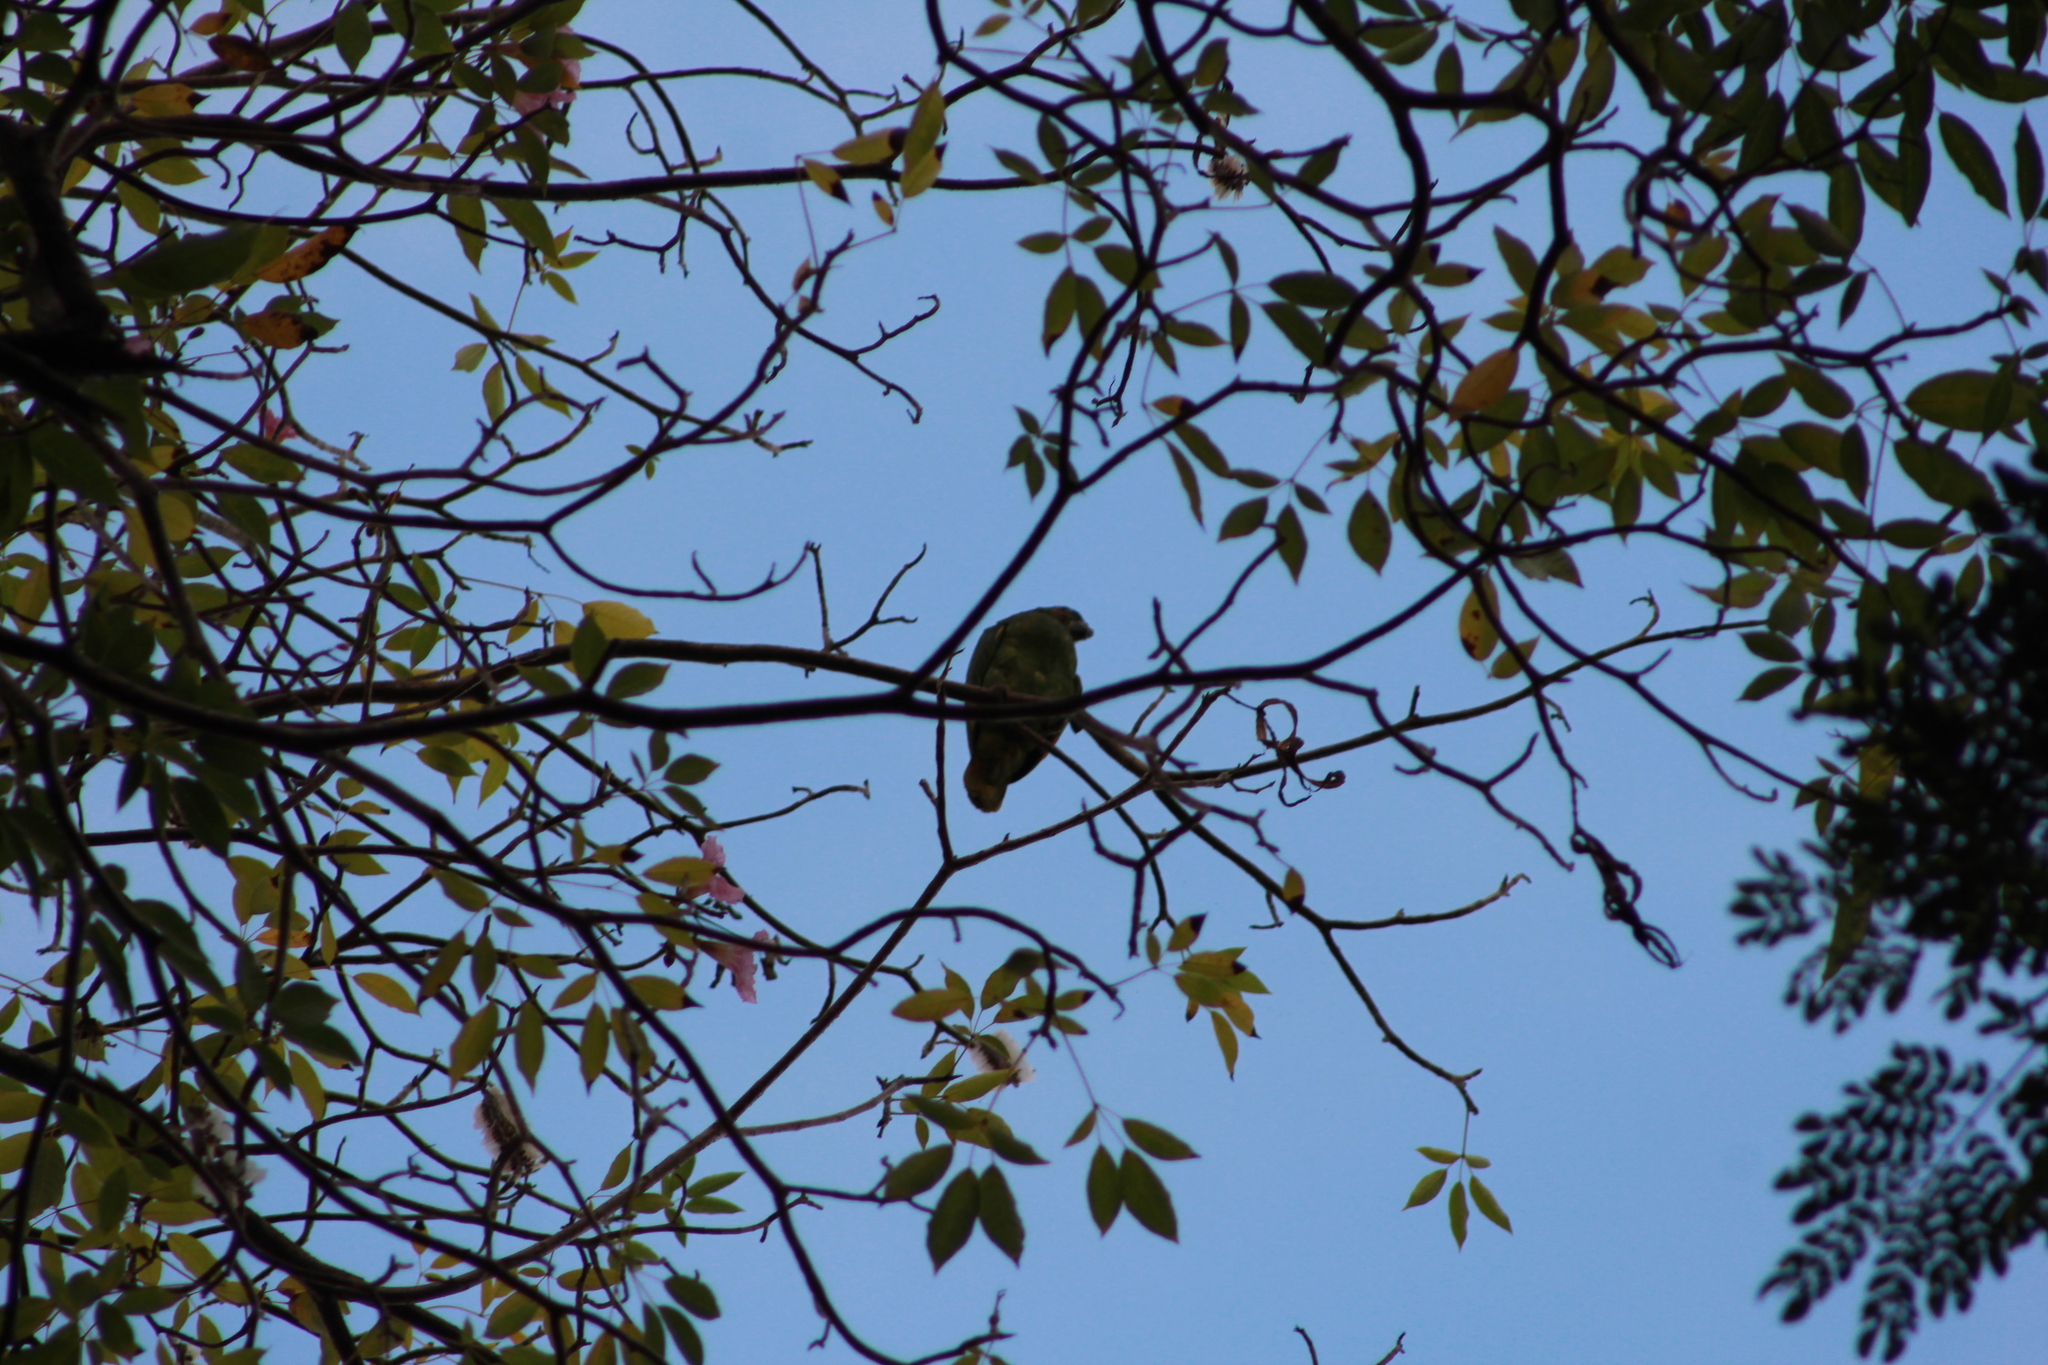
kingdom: Animalia
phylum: Chordata
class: Aves
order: Psittaciformes
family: Psittacidae
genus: Amazona
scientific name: Amazona amazonica
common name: Orange-winged amazon
